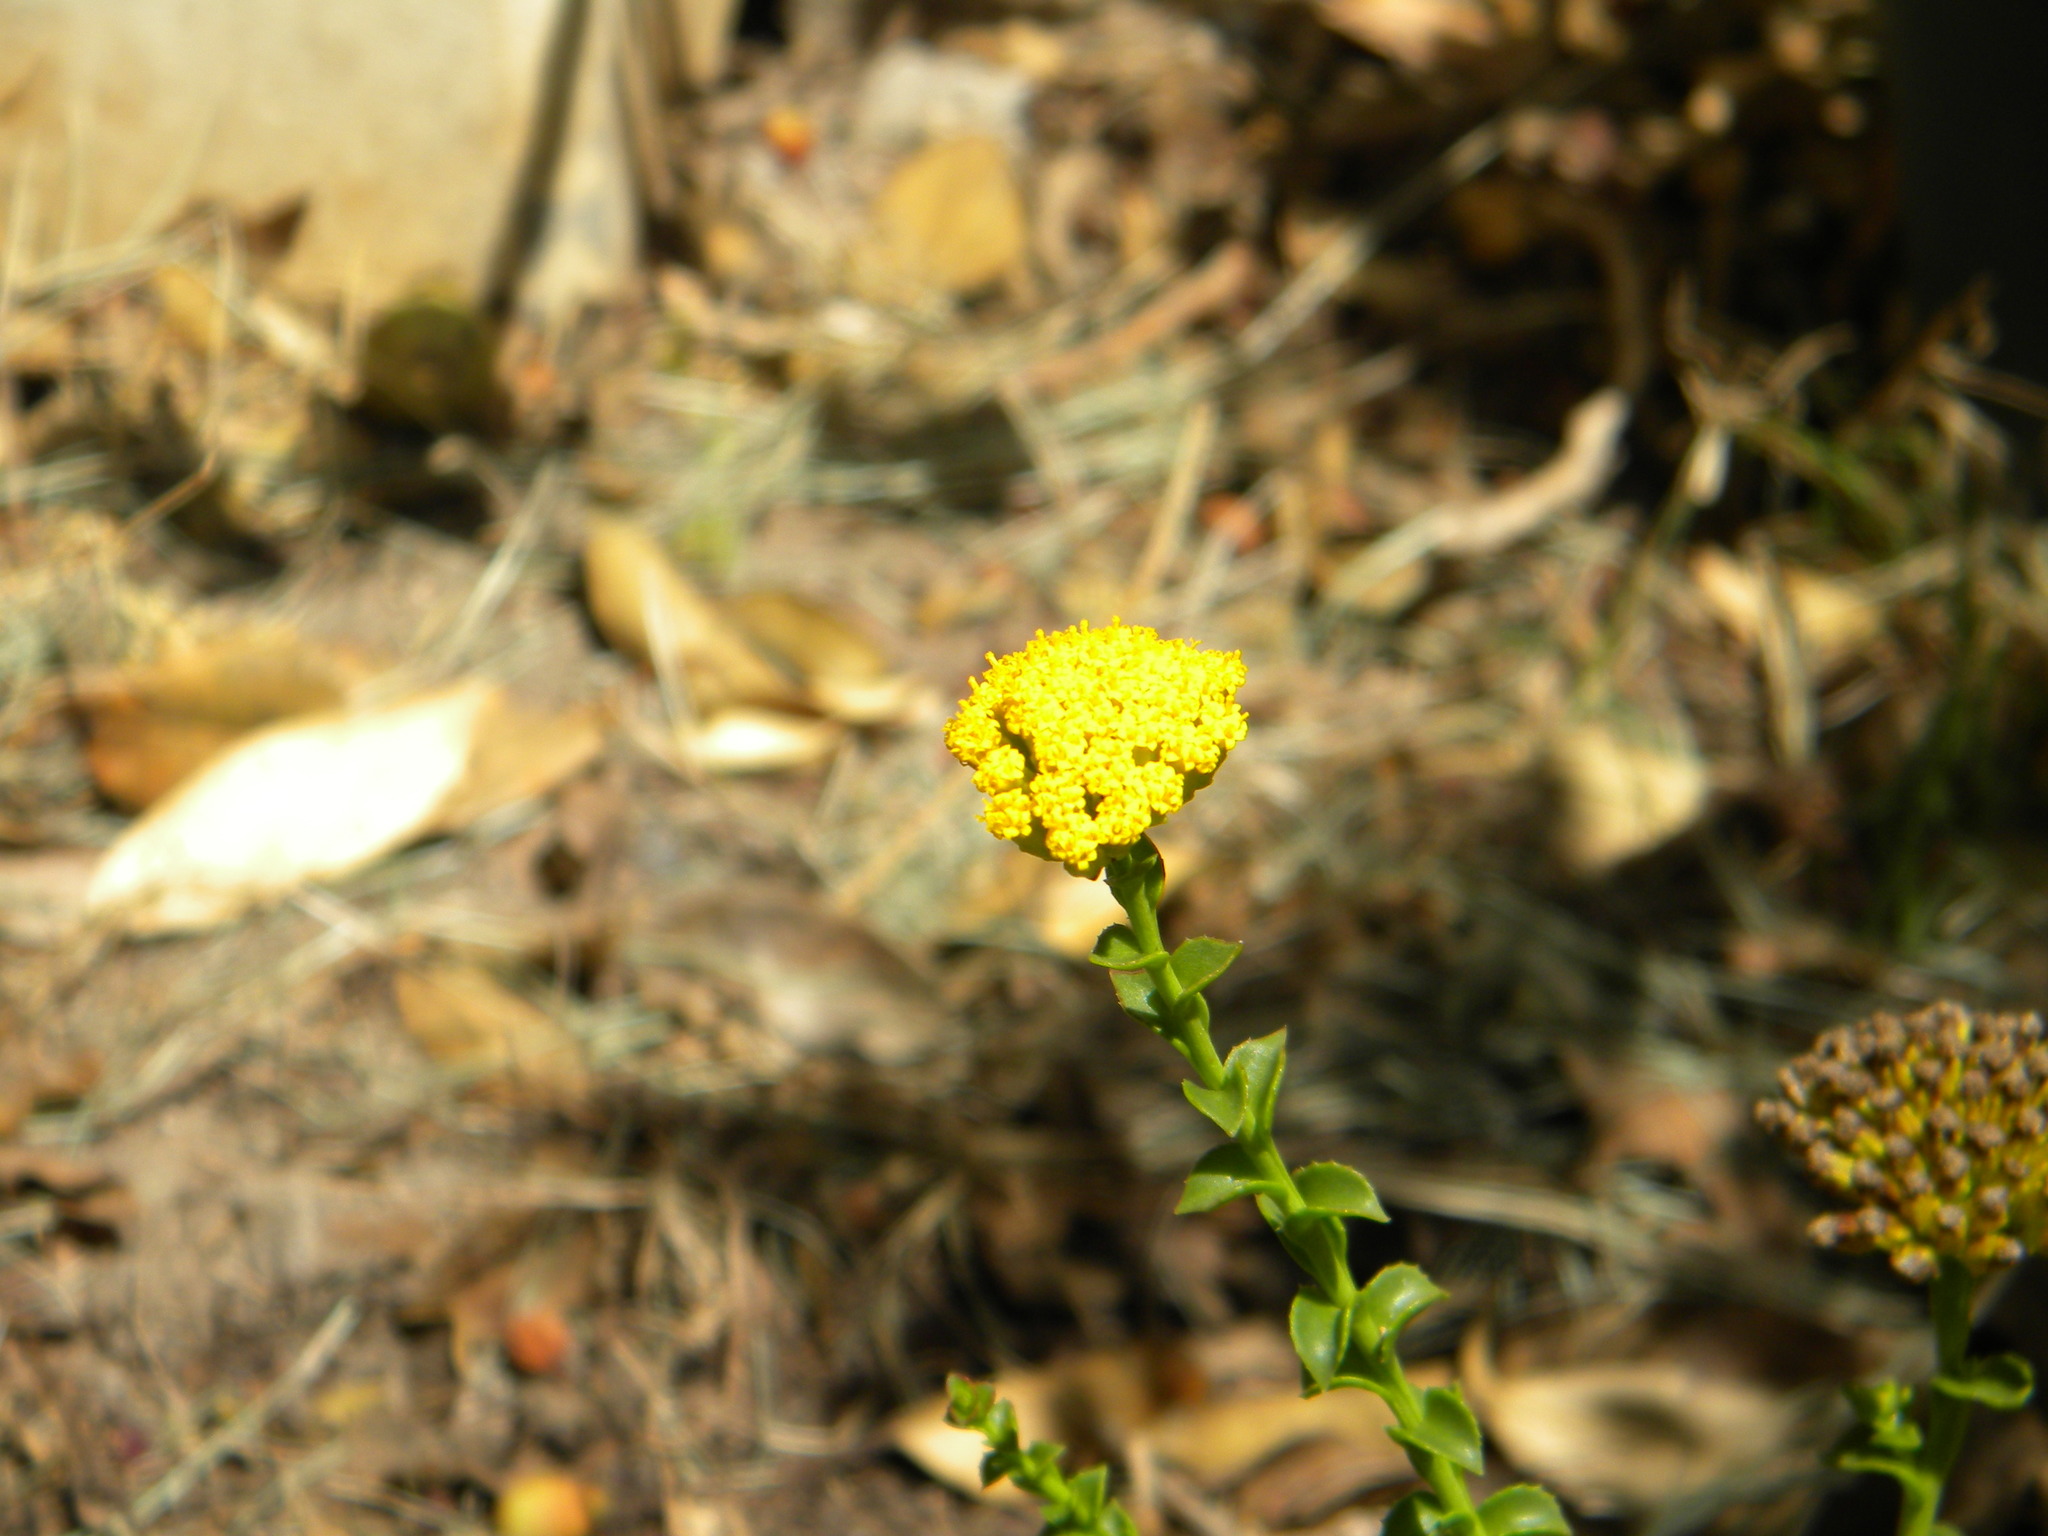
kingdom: Plantae
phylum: Tracheophyta
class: Magnoliopsida
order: Asterales
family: Asteraceae
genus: Athanasia
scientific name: Athanasia dentata
